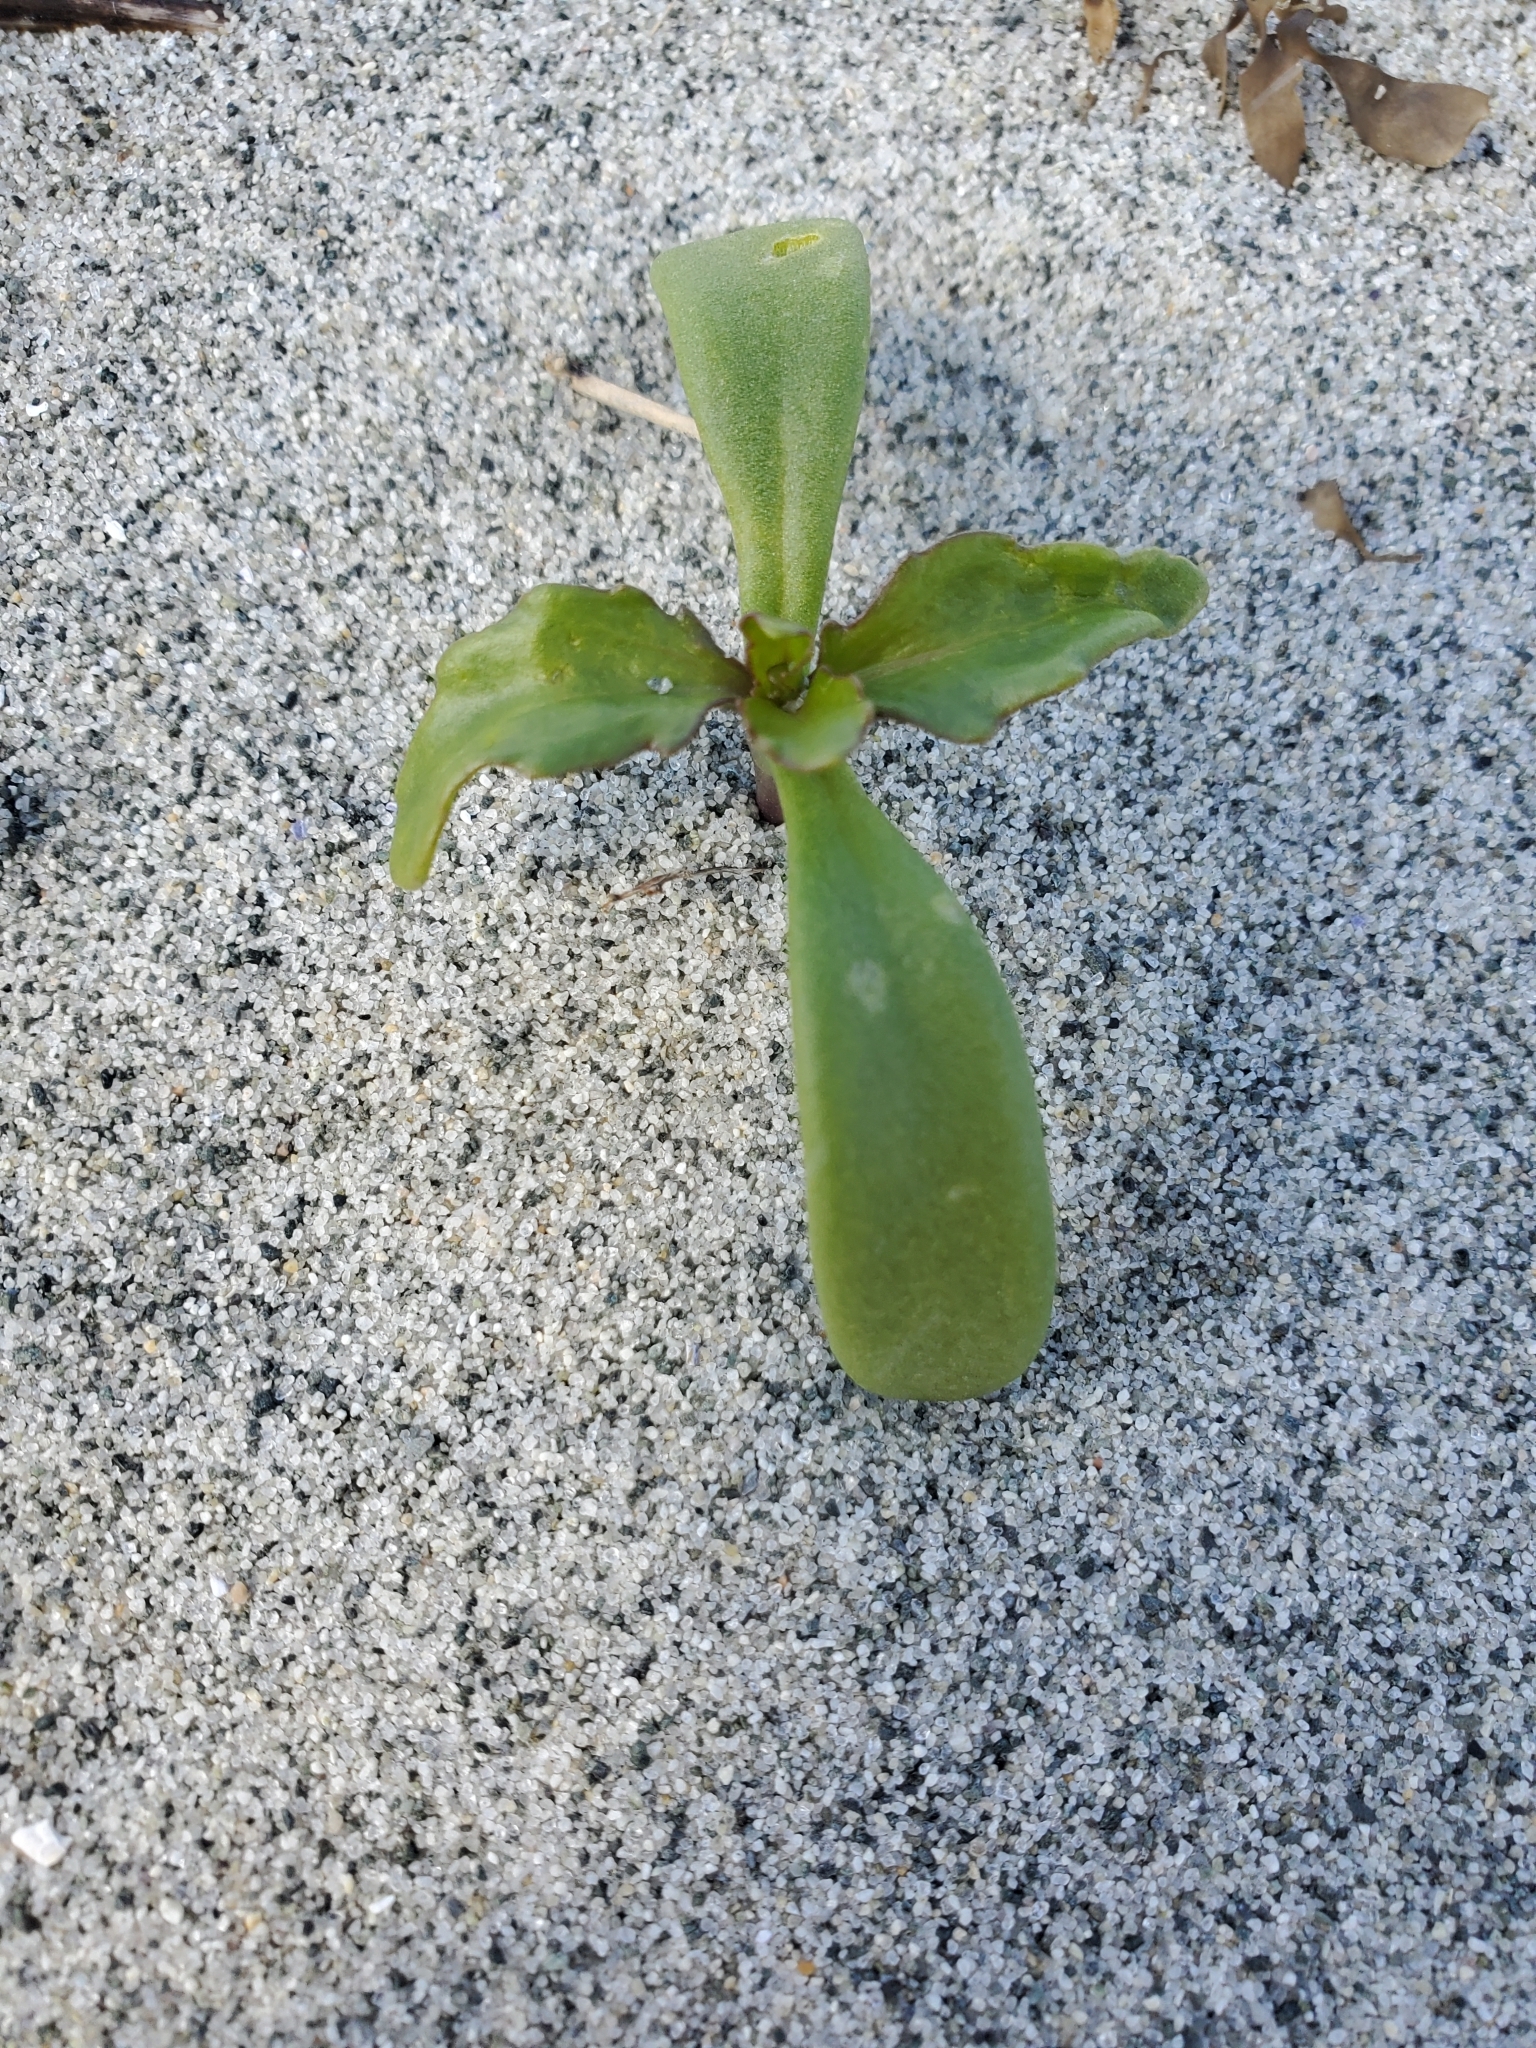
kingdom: Plantae
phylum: Tracheophyta
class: Magnoliopsida
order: Brassicales
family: Brassicaceae
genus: Cakile
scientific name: Cakile edentula
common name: American sea rocket
